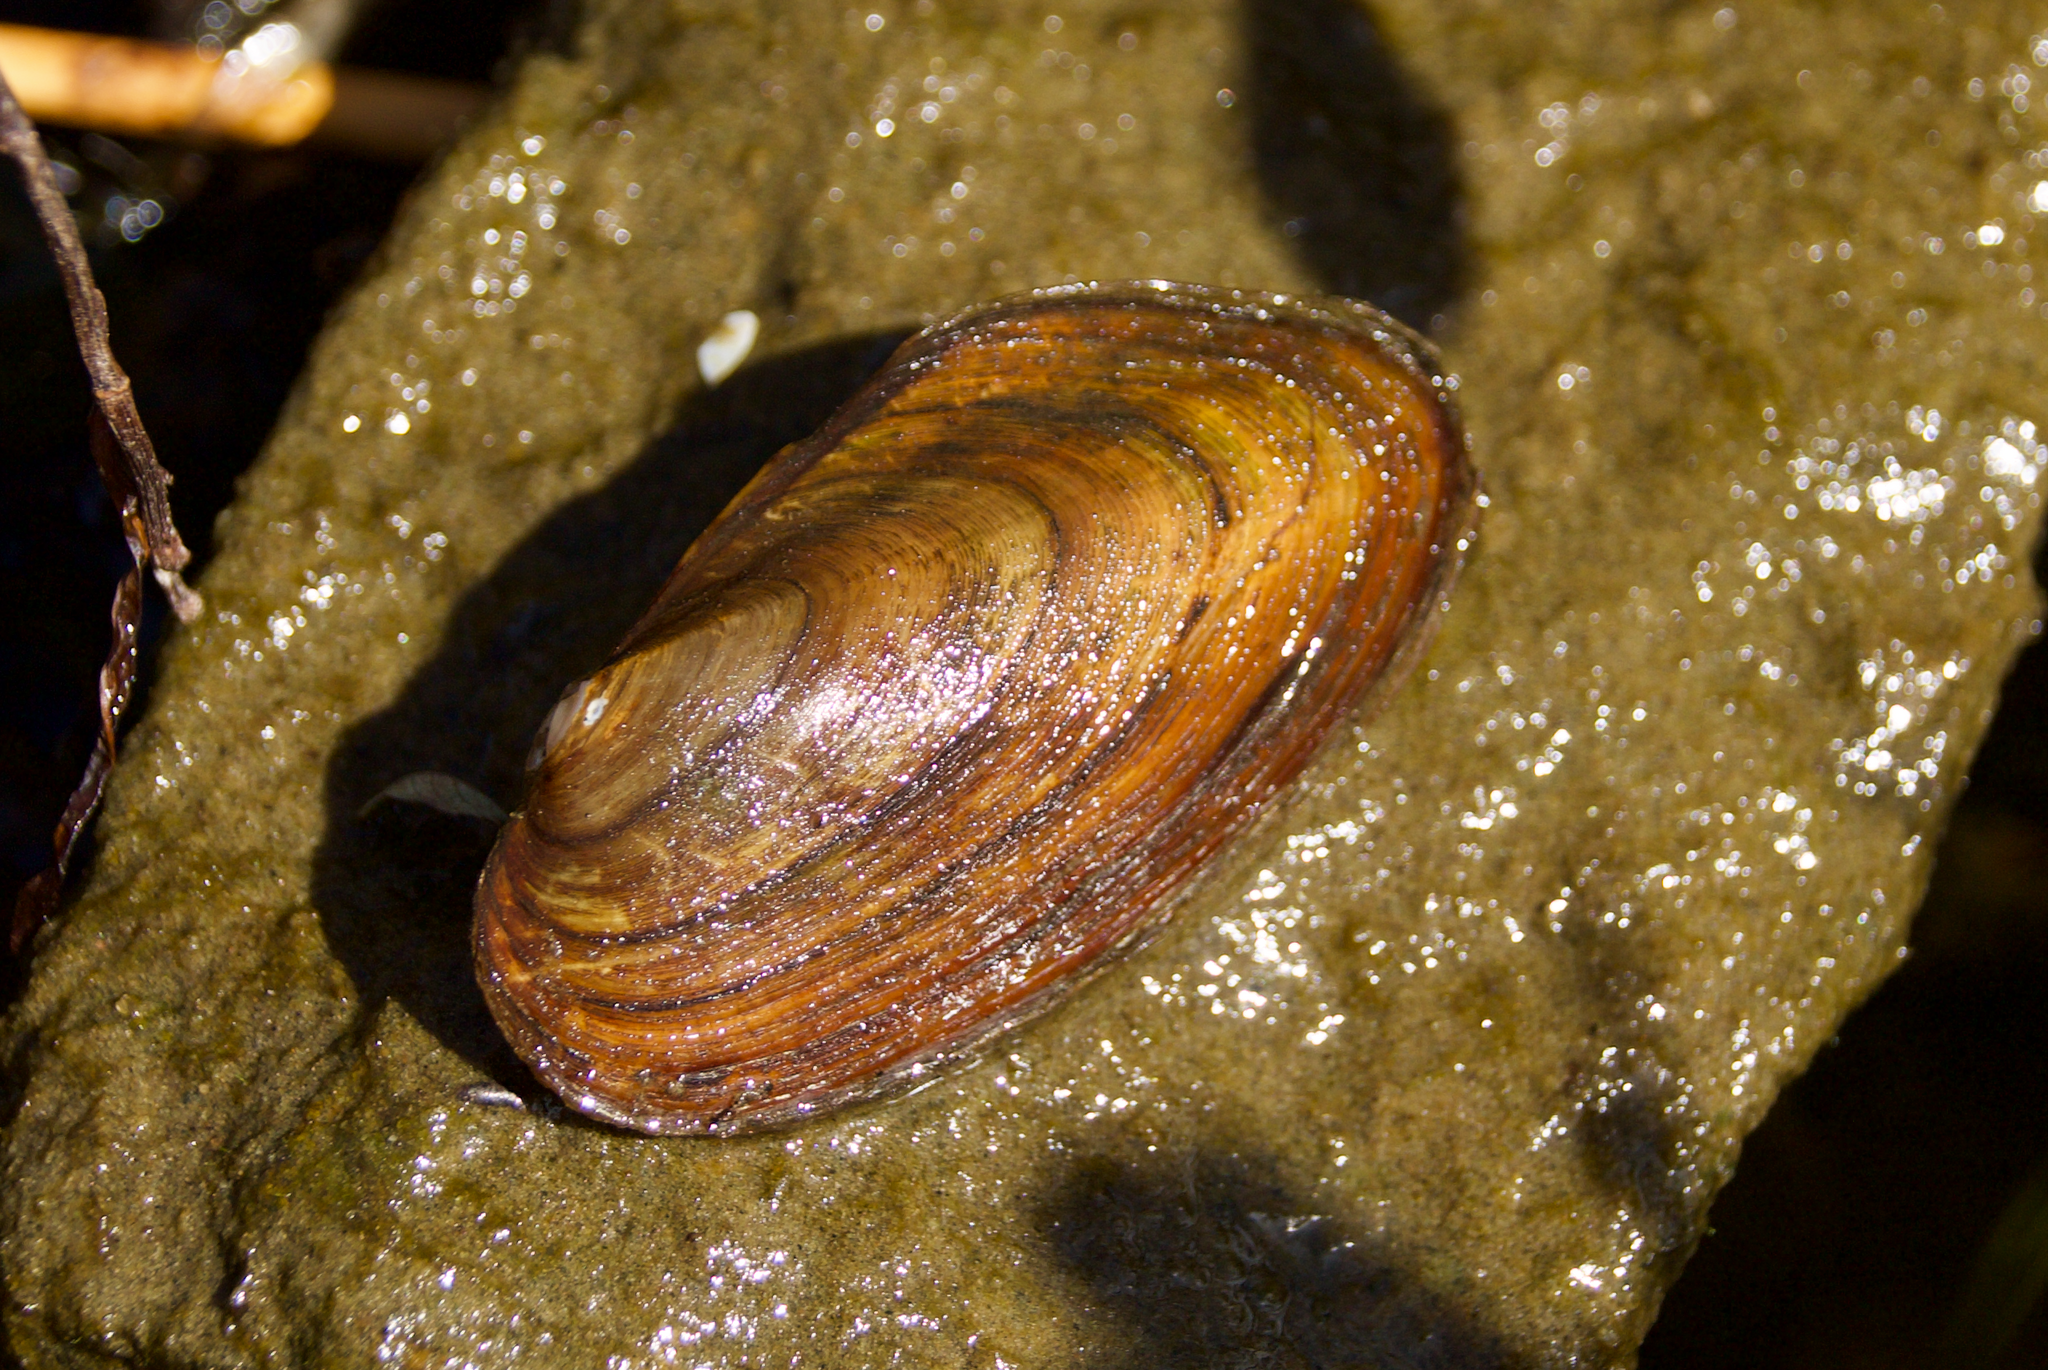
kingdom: Animalia
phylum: Mollusca
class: Bivalvia
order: Unionida
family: Unionidae
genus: Elliptio
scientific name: Elliptio complanata
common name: Eastern elliptio
